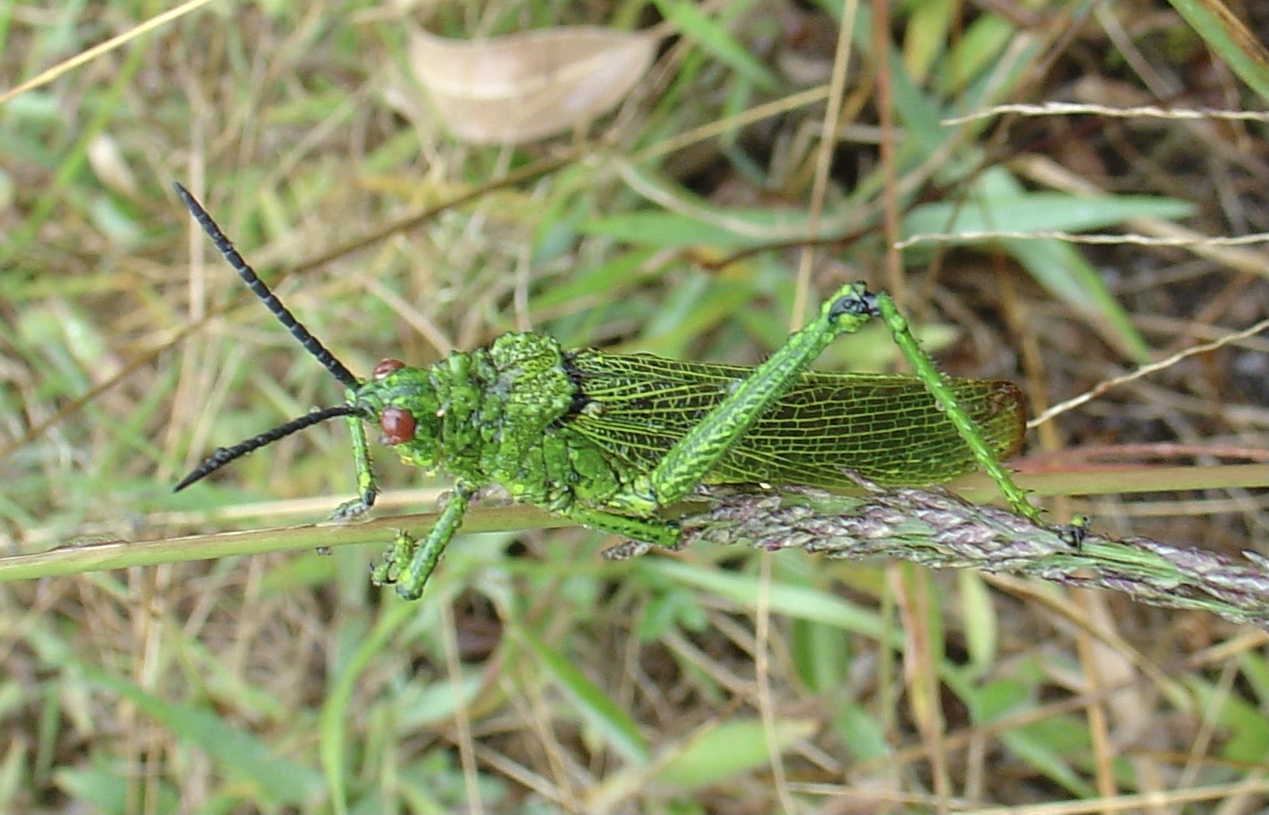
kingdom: Animalia
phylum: Arthropoda
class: Insecta
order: Orthoptera
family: Pyrgomorphidae
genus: Phymateus
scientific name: Phymateus viridipes
